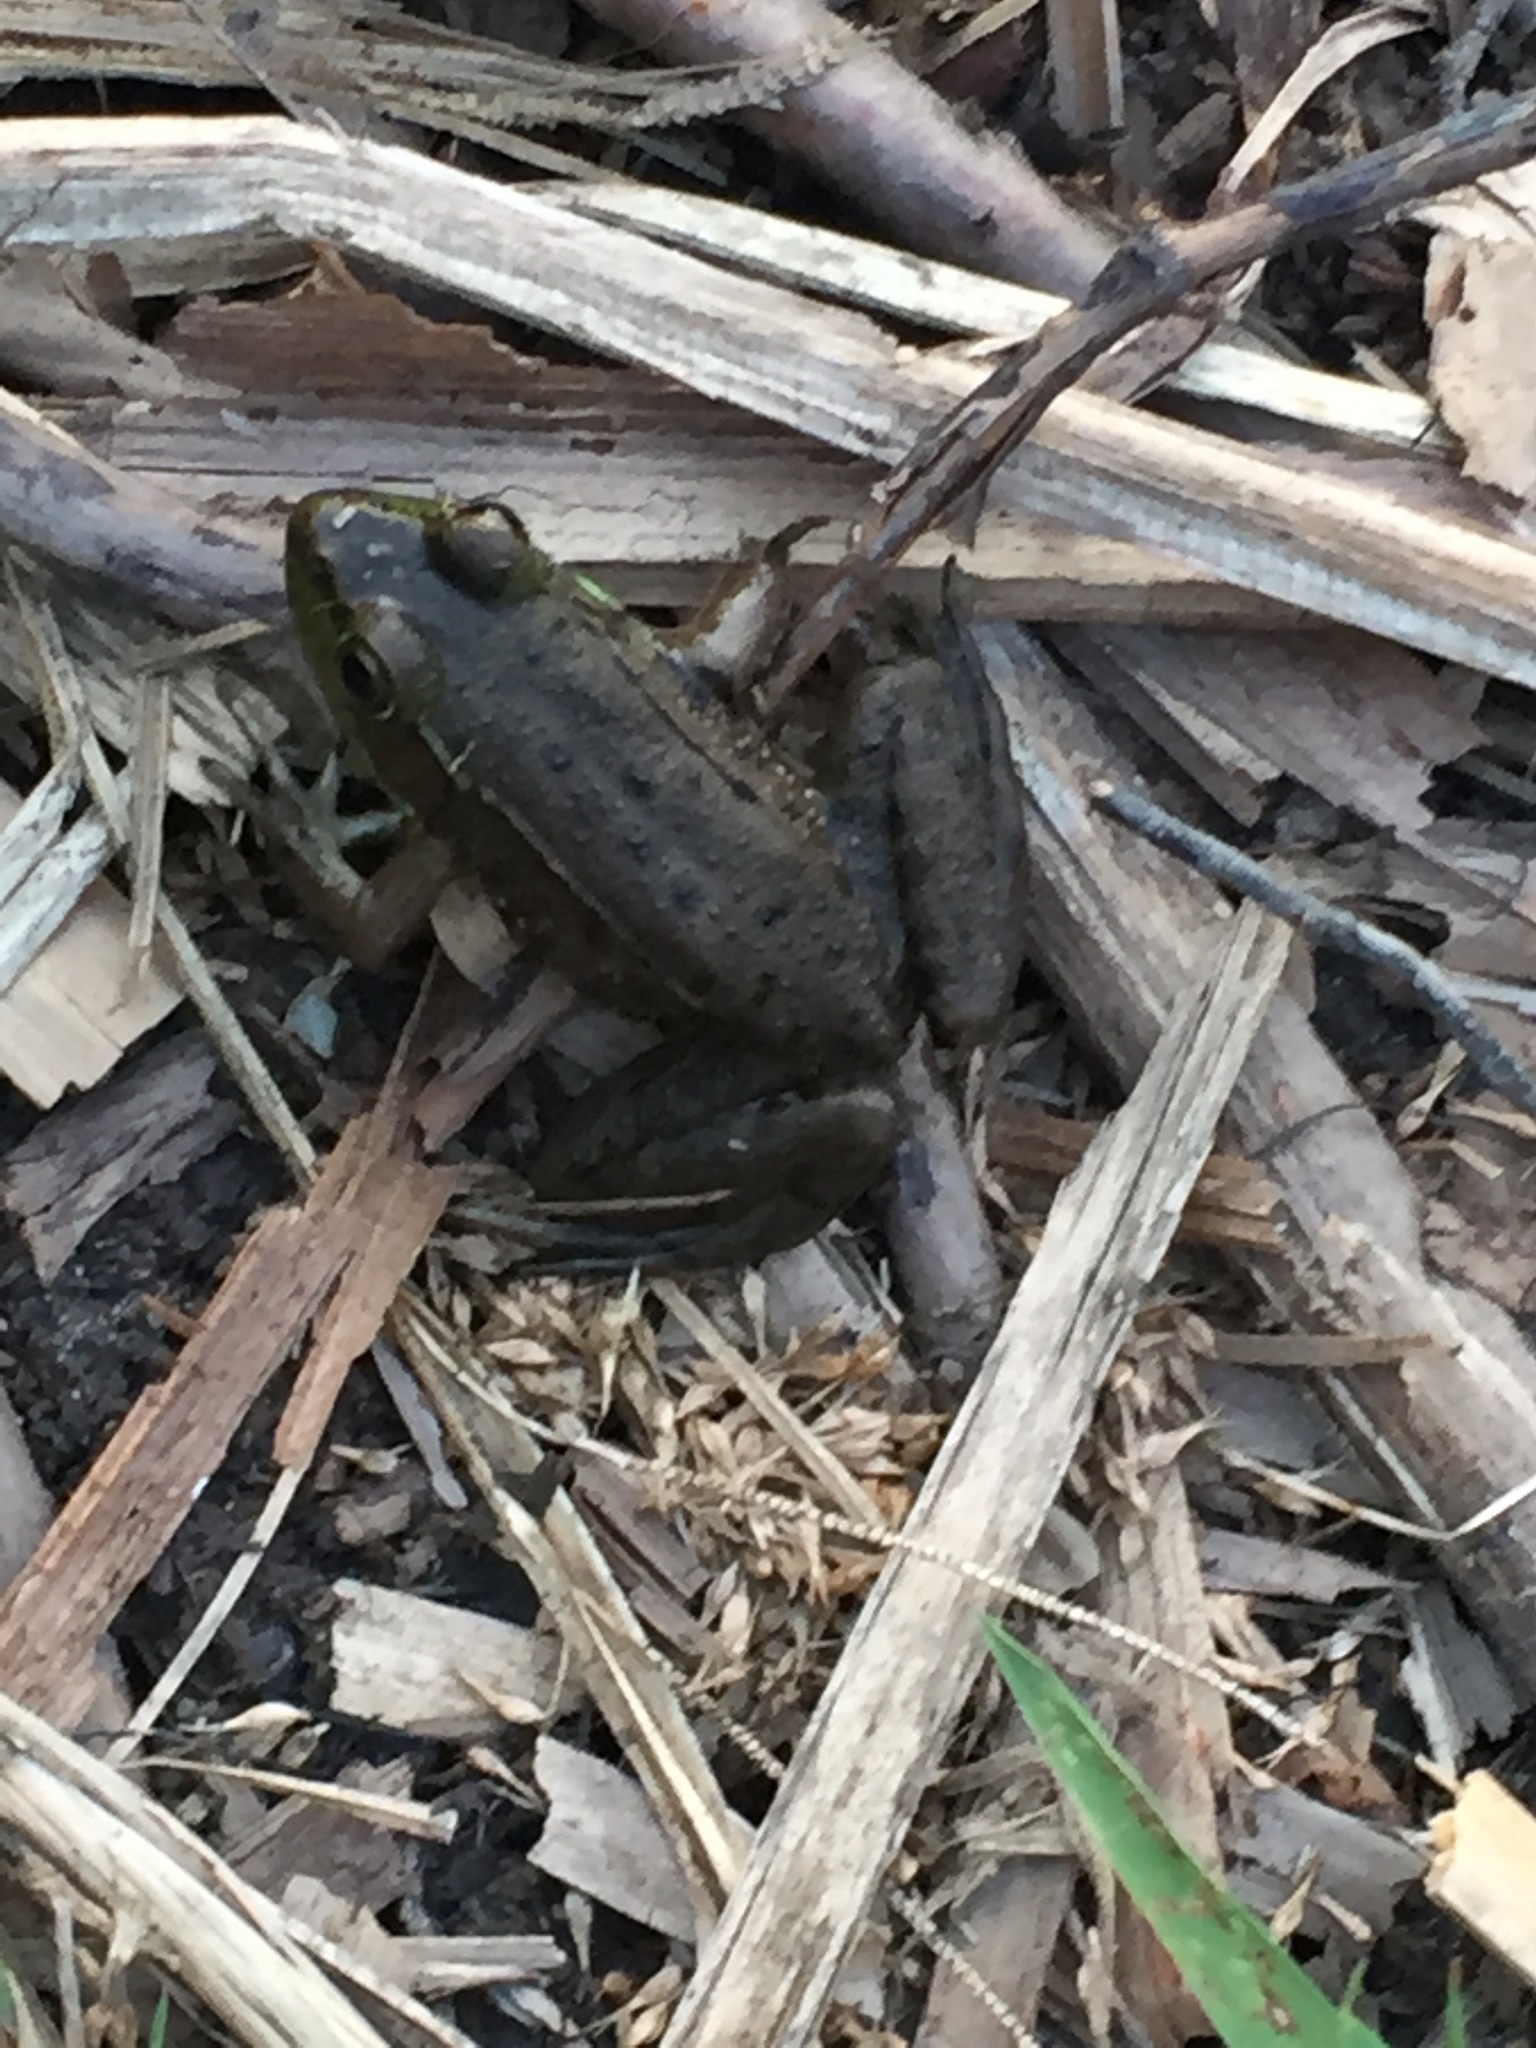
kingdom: Animalia
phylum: Chordata
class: Amphibia
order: Anura
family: Ranidae
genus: Lithobates
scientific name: Lithobates clamitans
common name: Green frog
